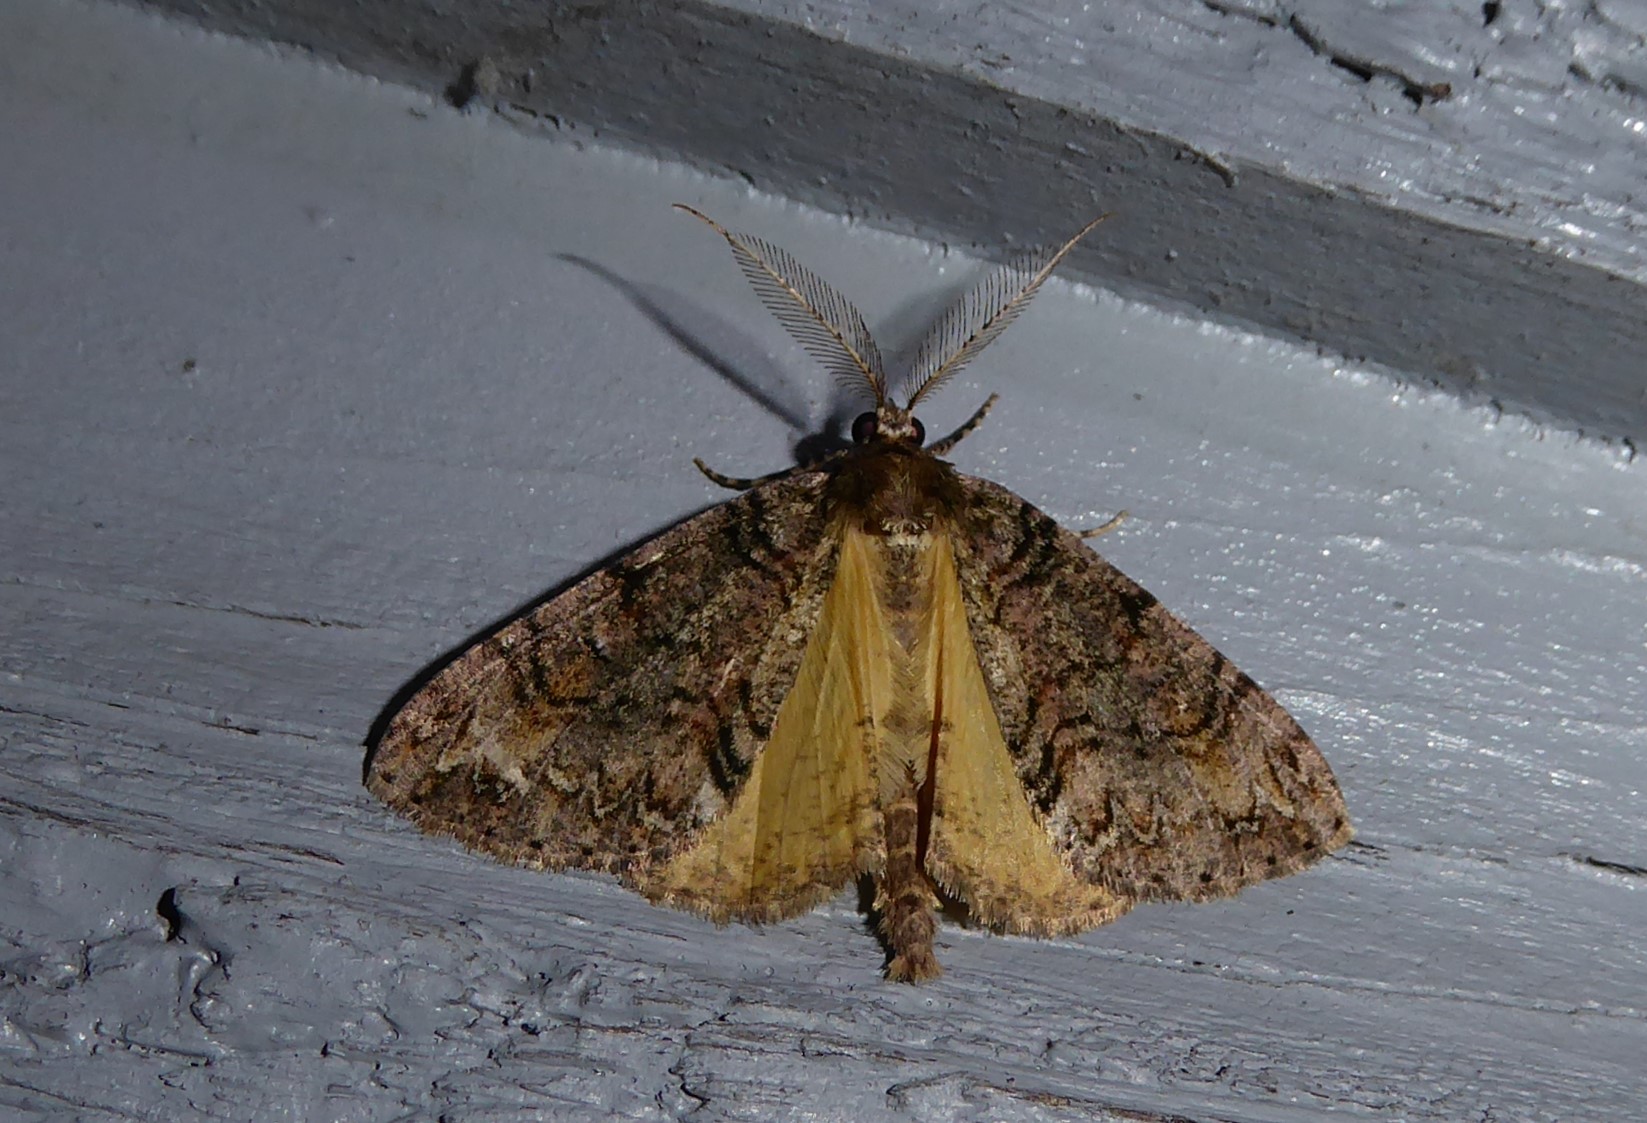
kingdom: Animalia
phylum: Arthropoda
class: Insecta
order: Lepidoptera
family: Geometridae
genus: Pseudocoremia
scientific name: Pseudocoremia suavis
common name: Common forest looper
